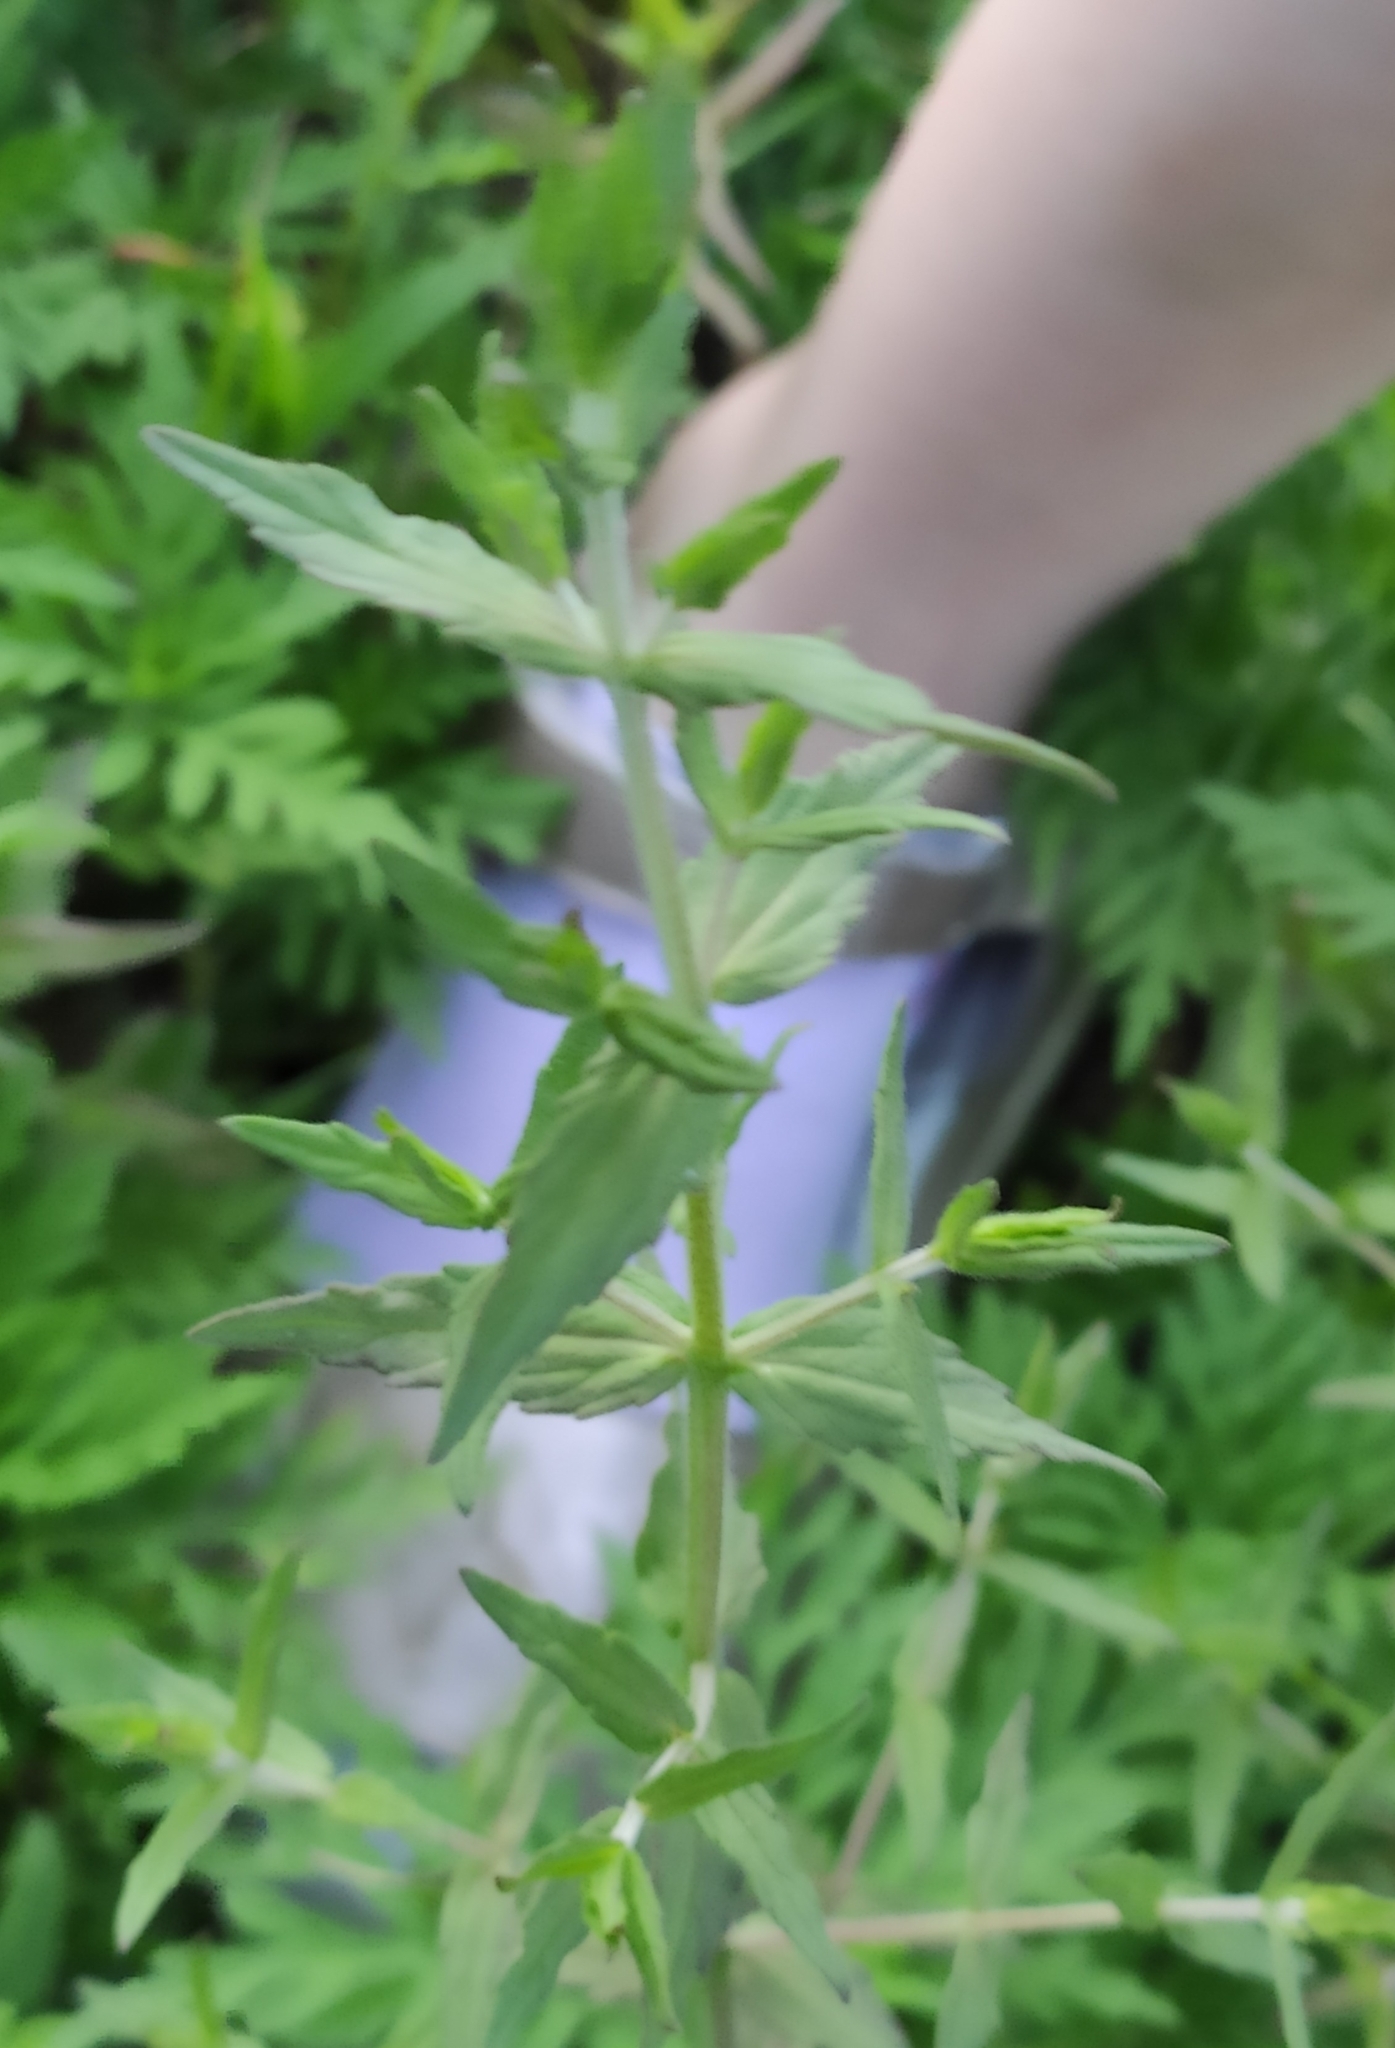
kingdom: Plantae
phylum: Tracheophyta
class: Magnoliopsida
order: Lamiales
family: Orobanchaceae
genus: Odontites
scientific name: Odontites vulgaris
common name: Broomrape
